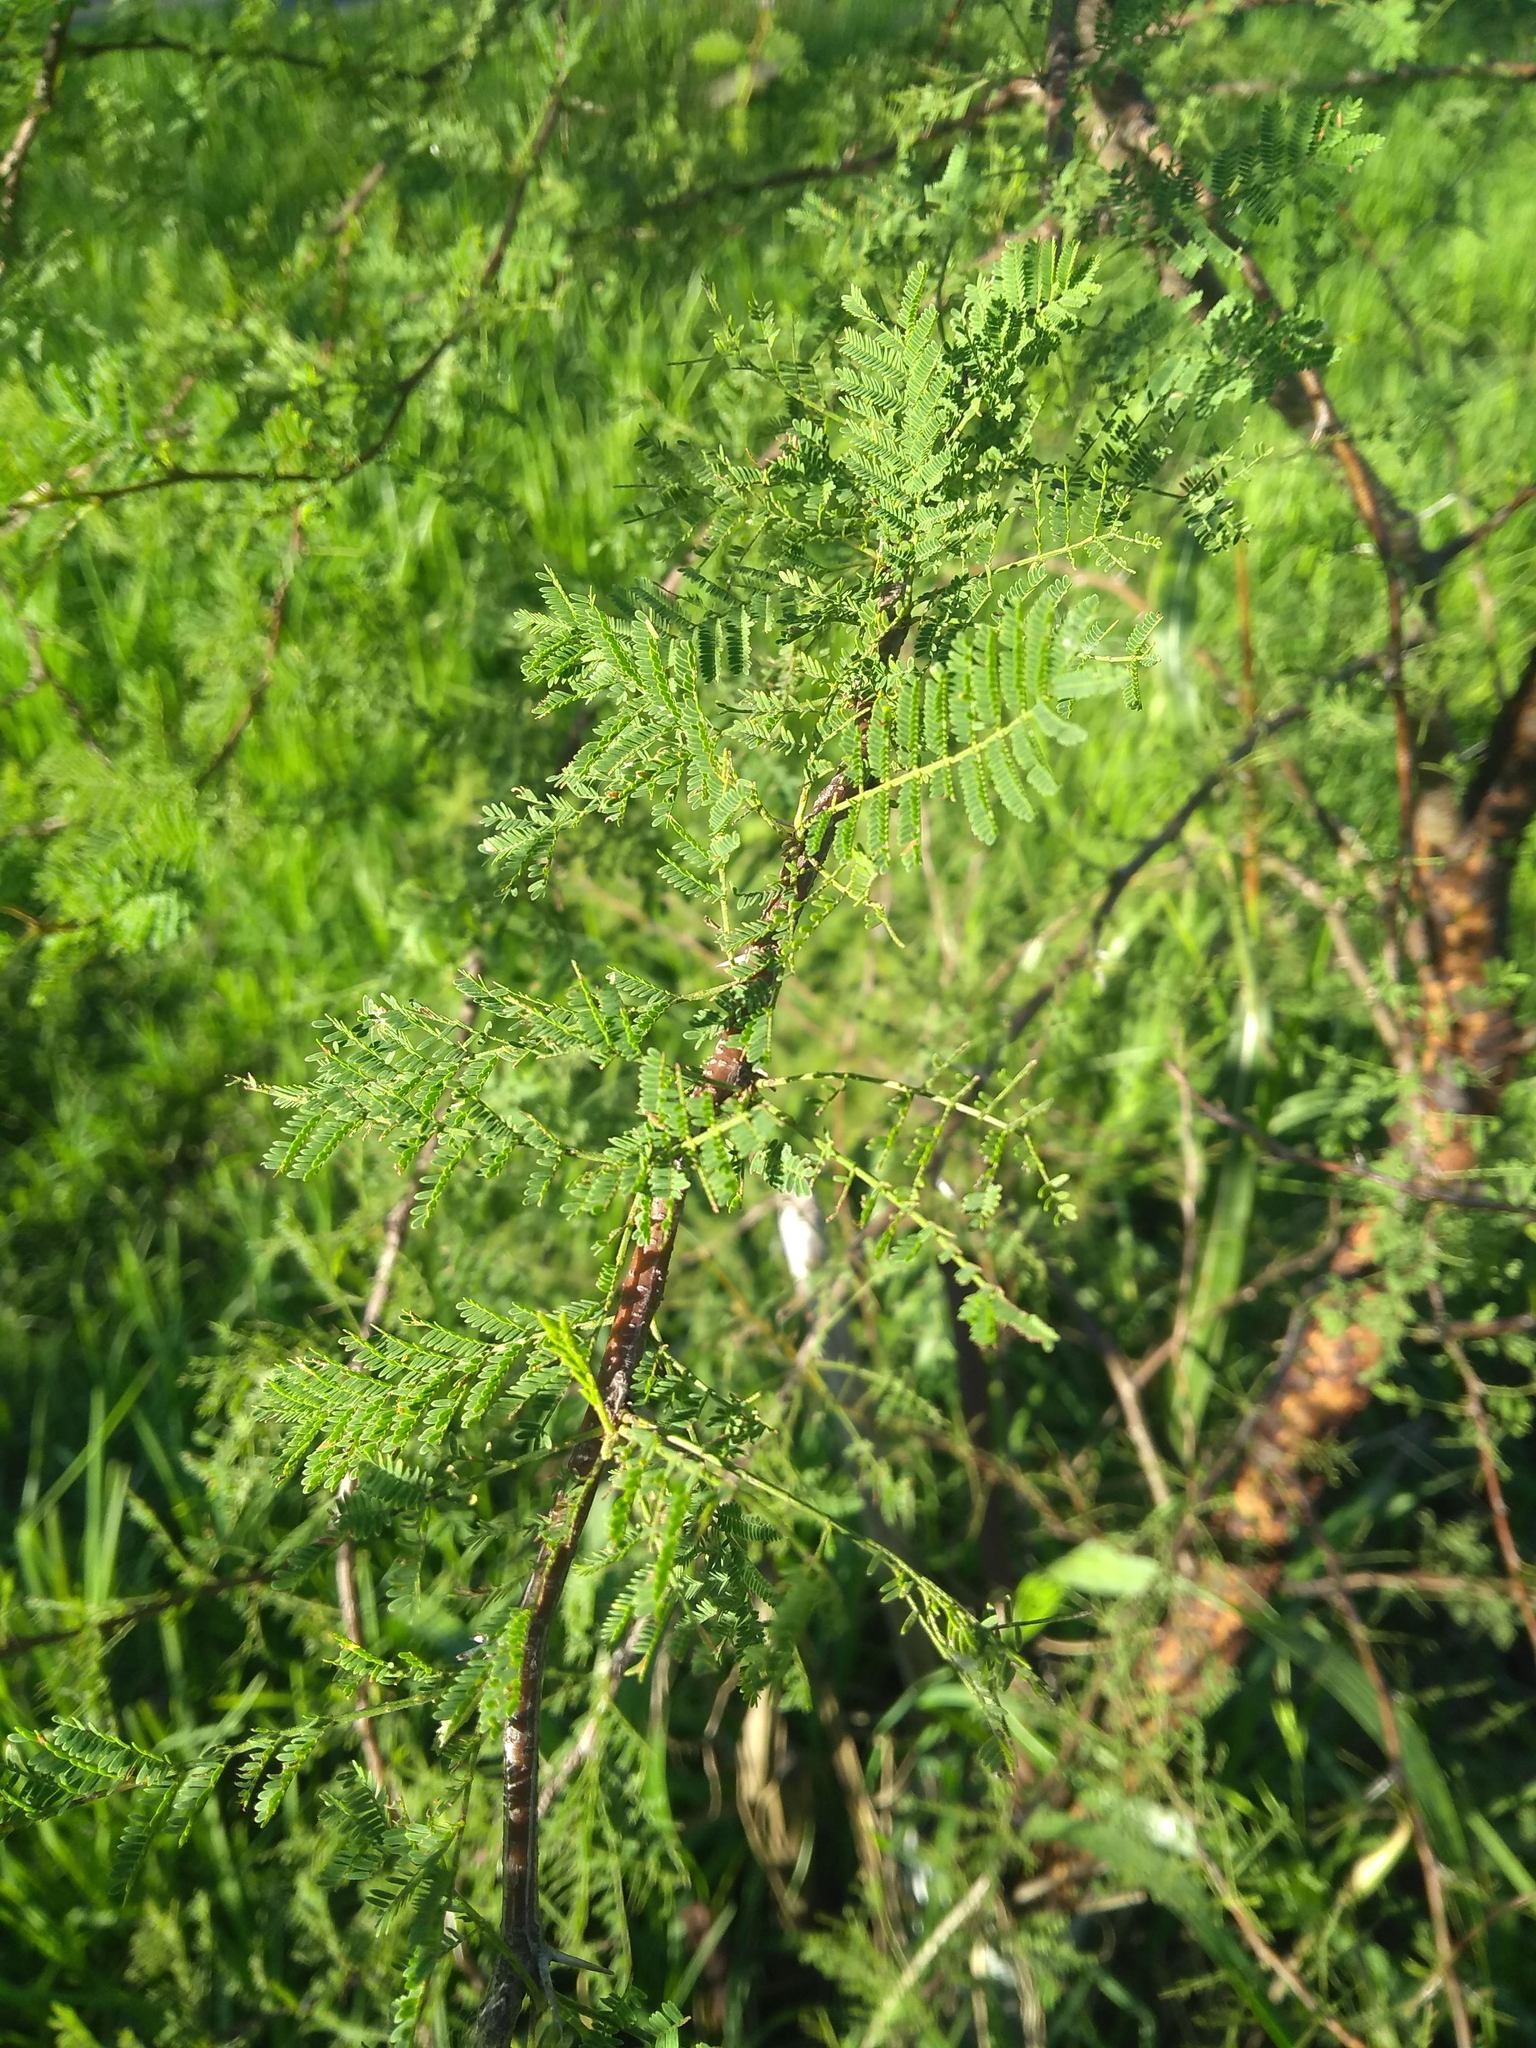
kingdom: Plantae
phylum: Tracheophyta
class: Magnoliopsida
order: Fabales
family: Fabaceae
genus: Vachellia
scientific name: Vachellia caven
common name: Roman cassie
